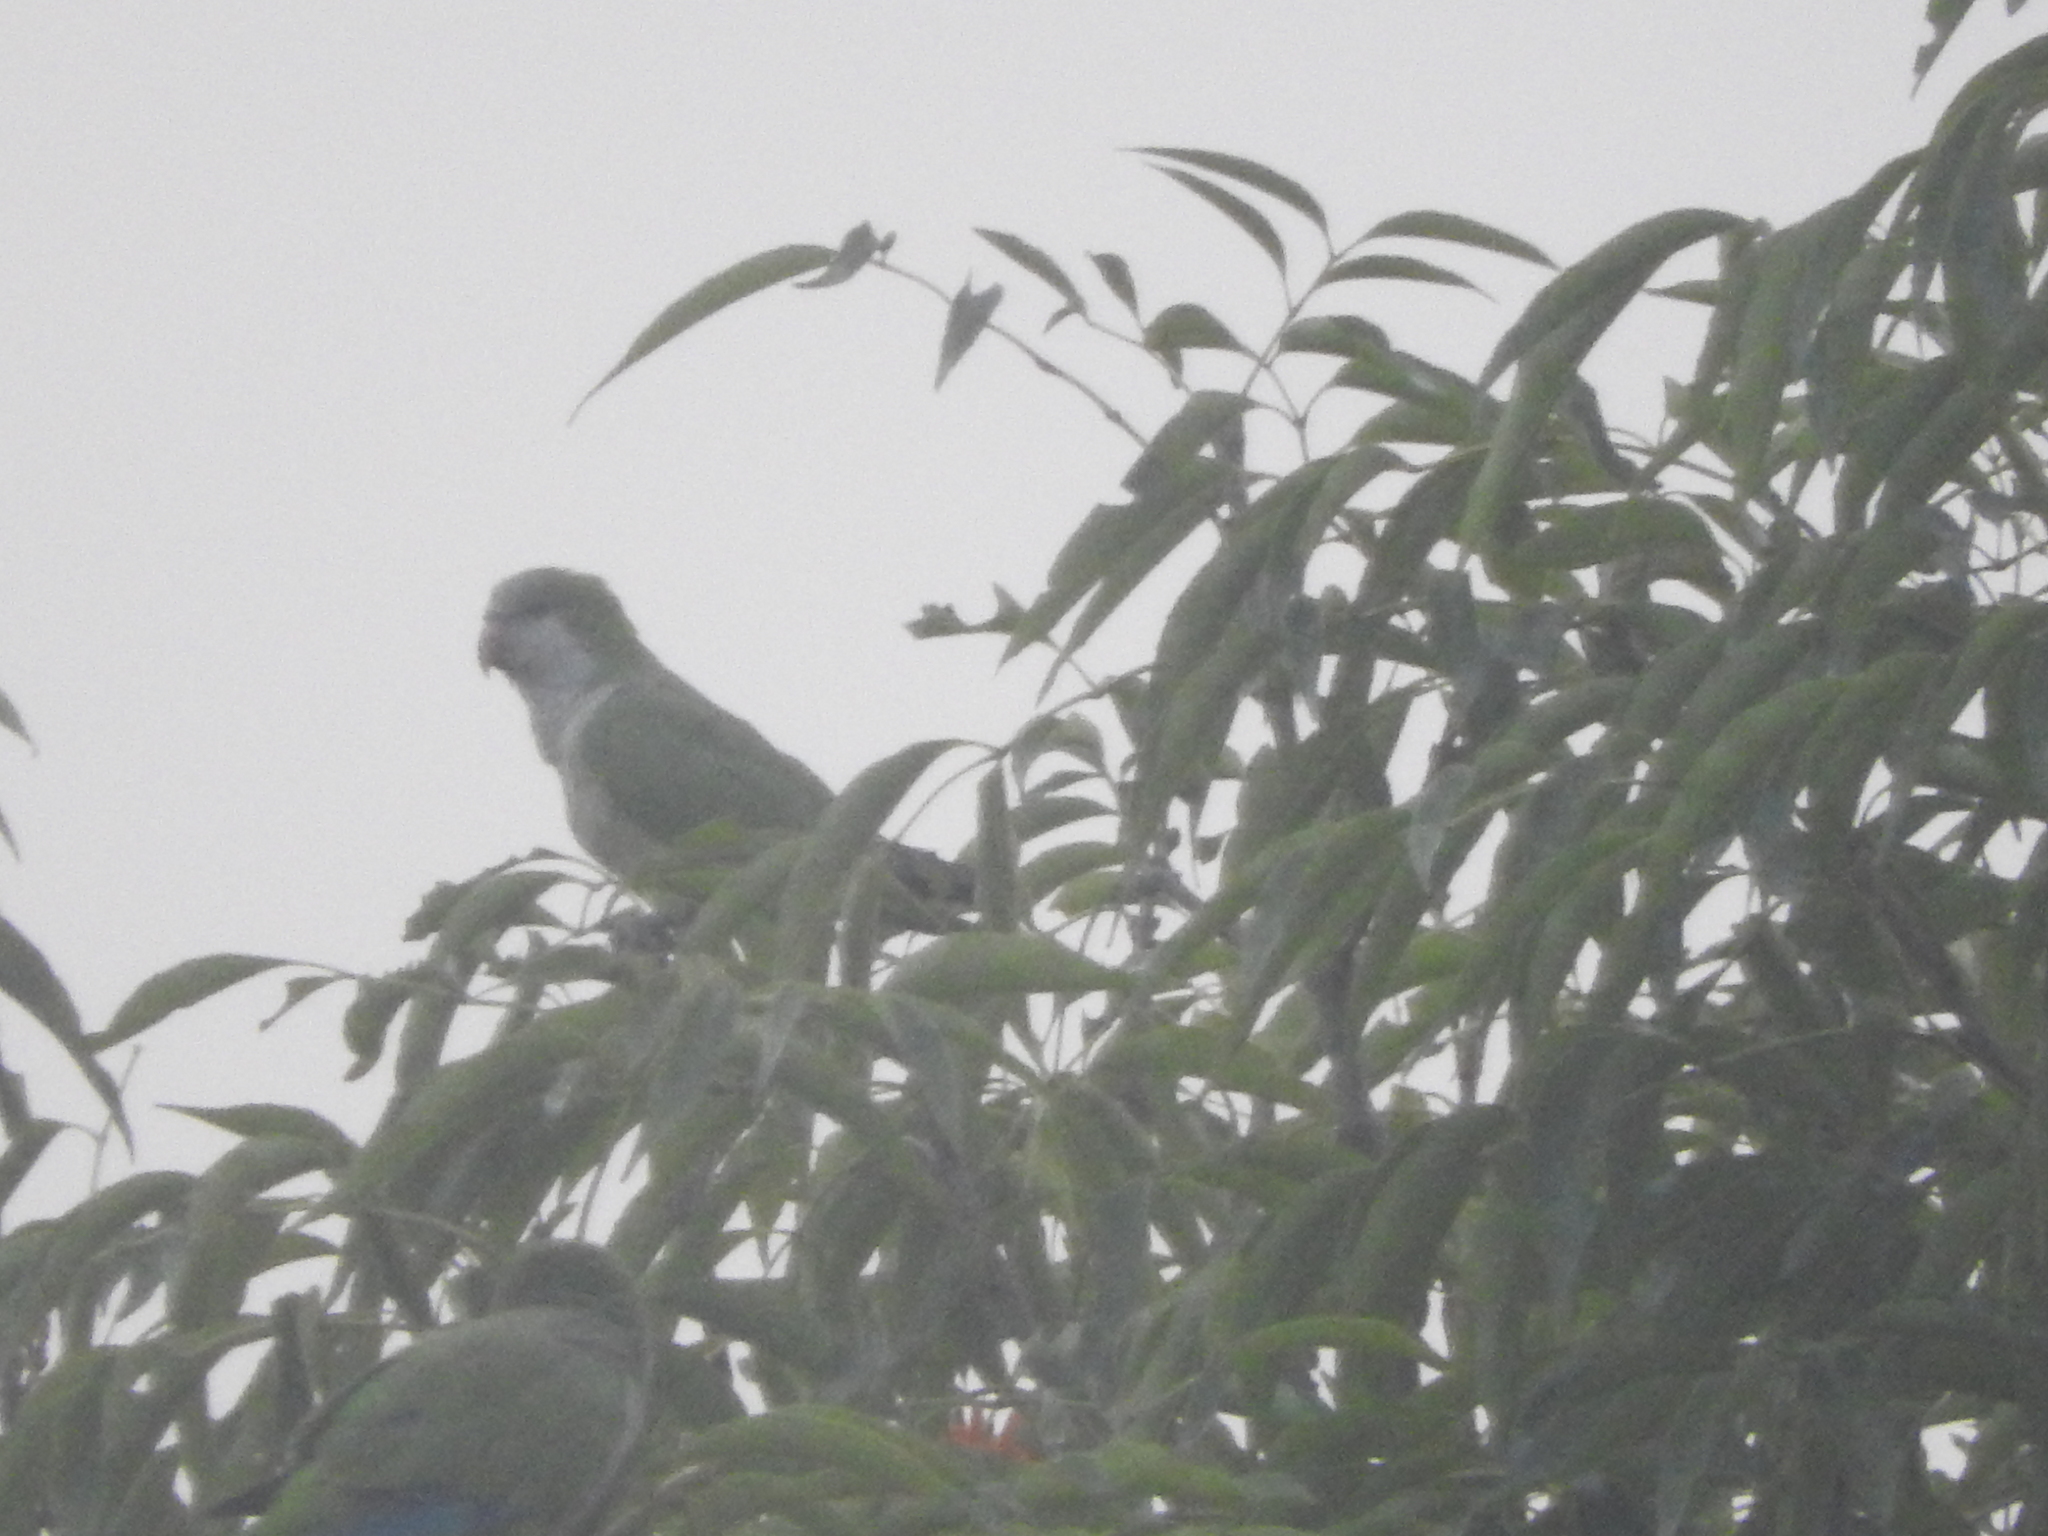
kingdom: Animalia
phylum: Chordata
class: Aves
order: Psittaciformes
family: Psittacidae
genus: Myiopsitta
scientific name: Myiopsitta monachus
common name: Monk parakeet
